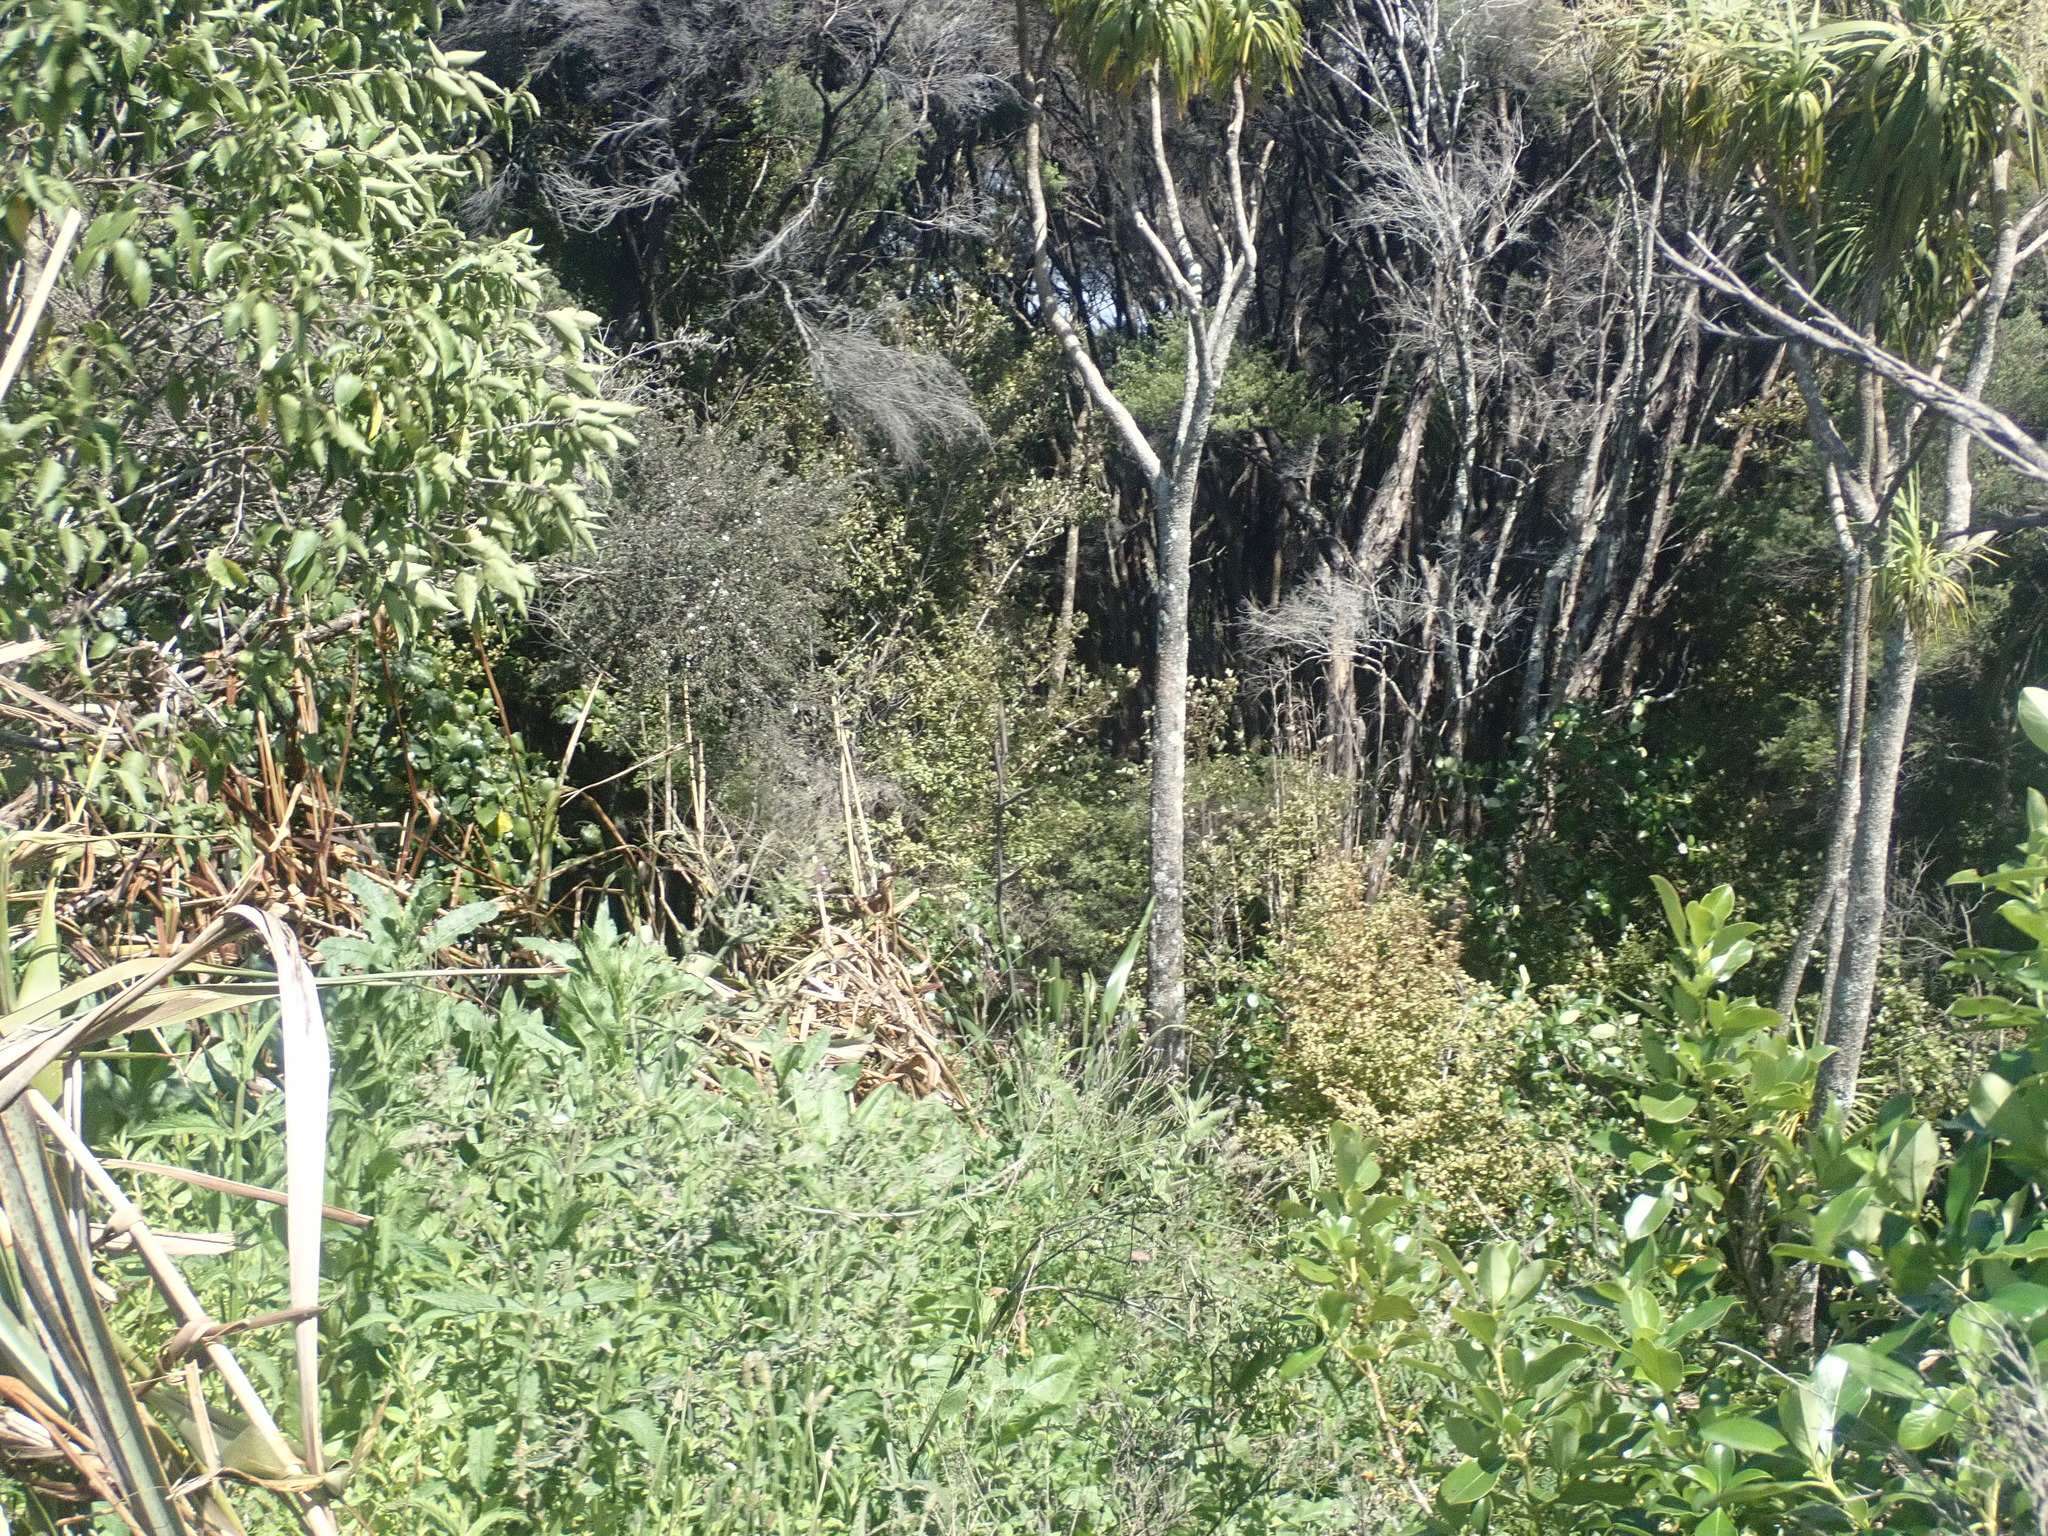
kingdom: Plantae
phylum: Tracheophyta
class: Magnoliopsida
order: Ericales
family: Primulaceae
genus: Myrsine
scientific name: Myrsine australis
